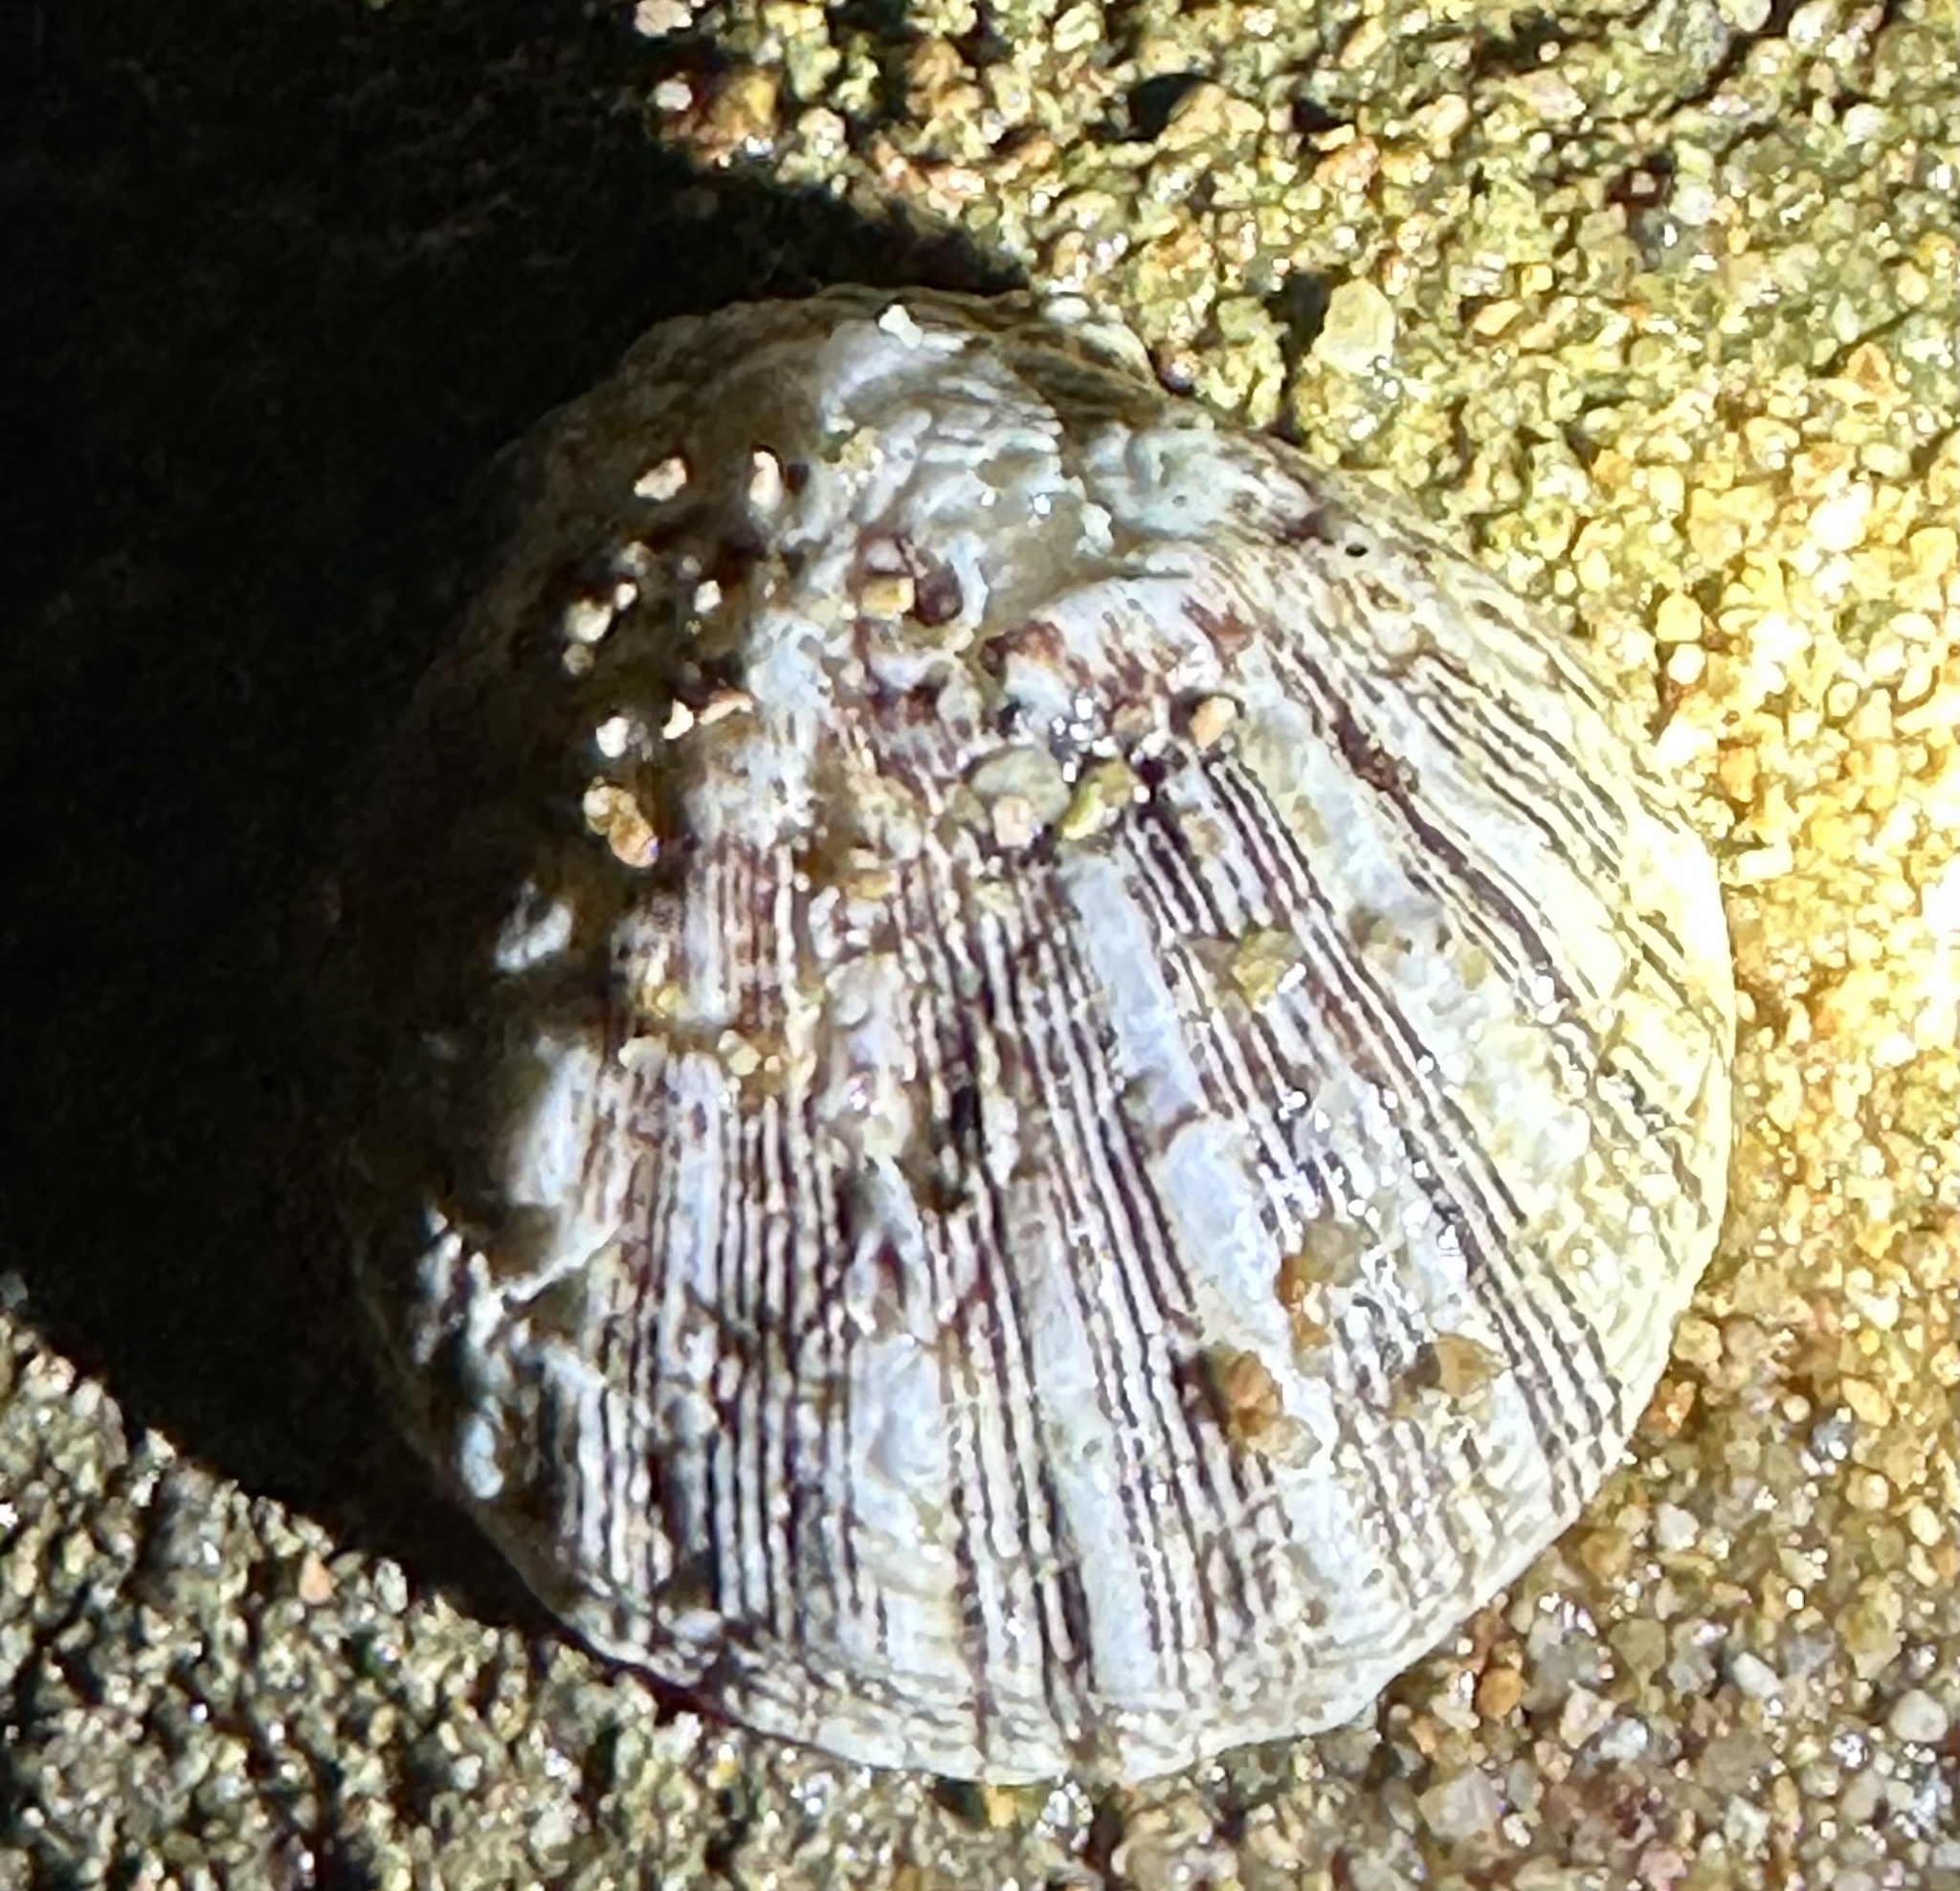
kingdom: Animalia
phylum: Mollusca
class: Bivalvia
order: Pectinida
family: Spondylidae
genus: Spondylus
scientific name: Spondylus squamosus
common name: Scaly thorny oyster
